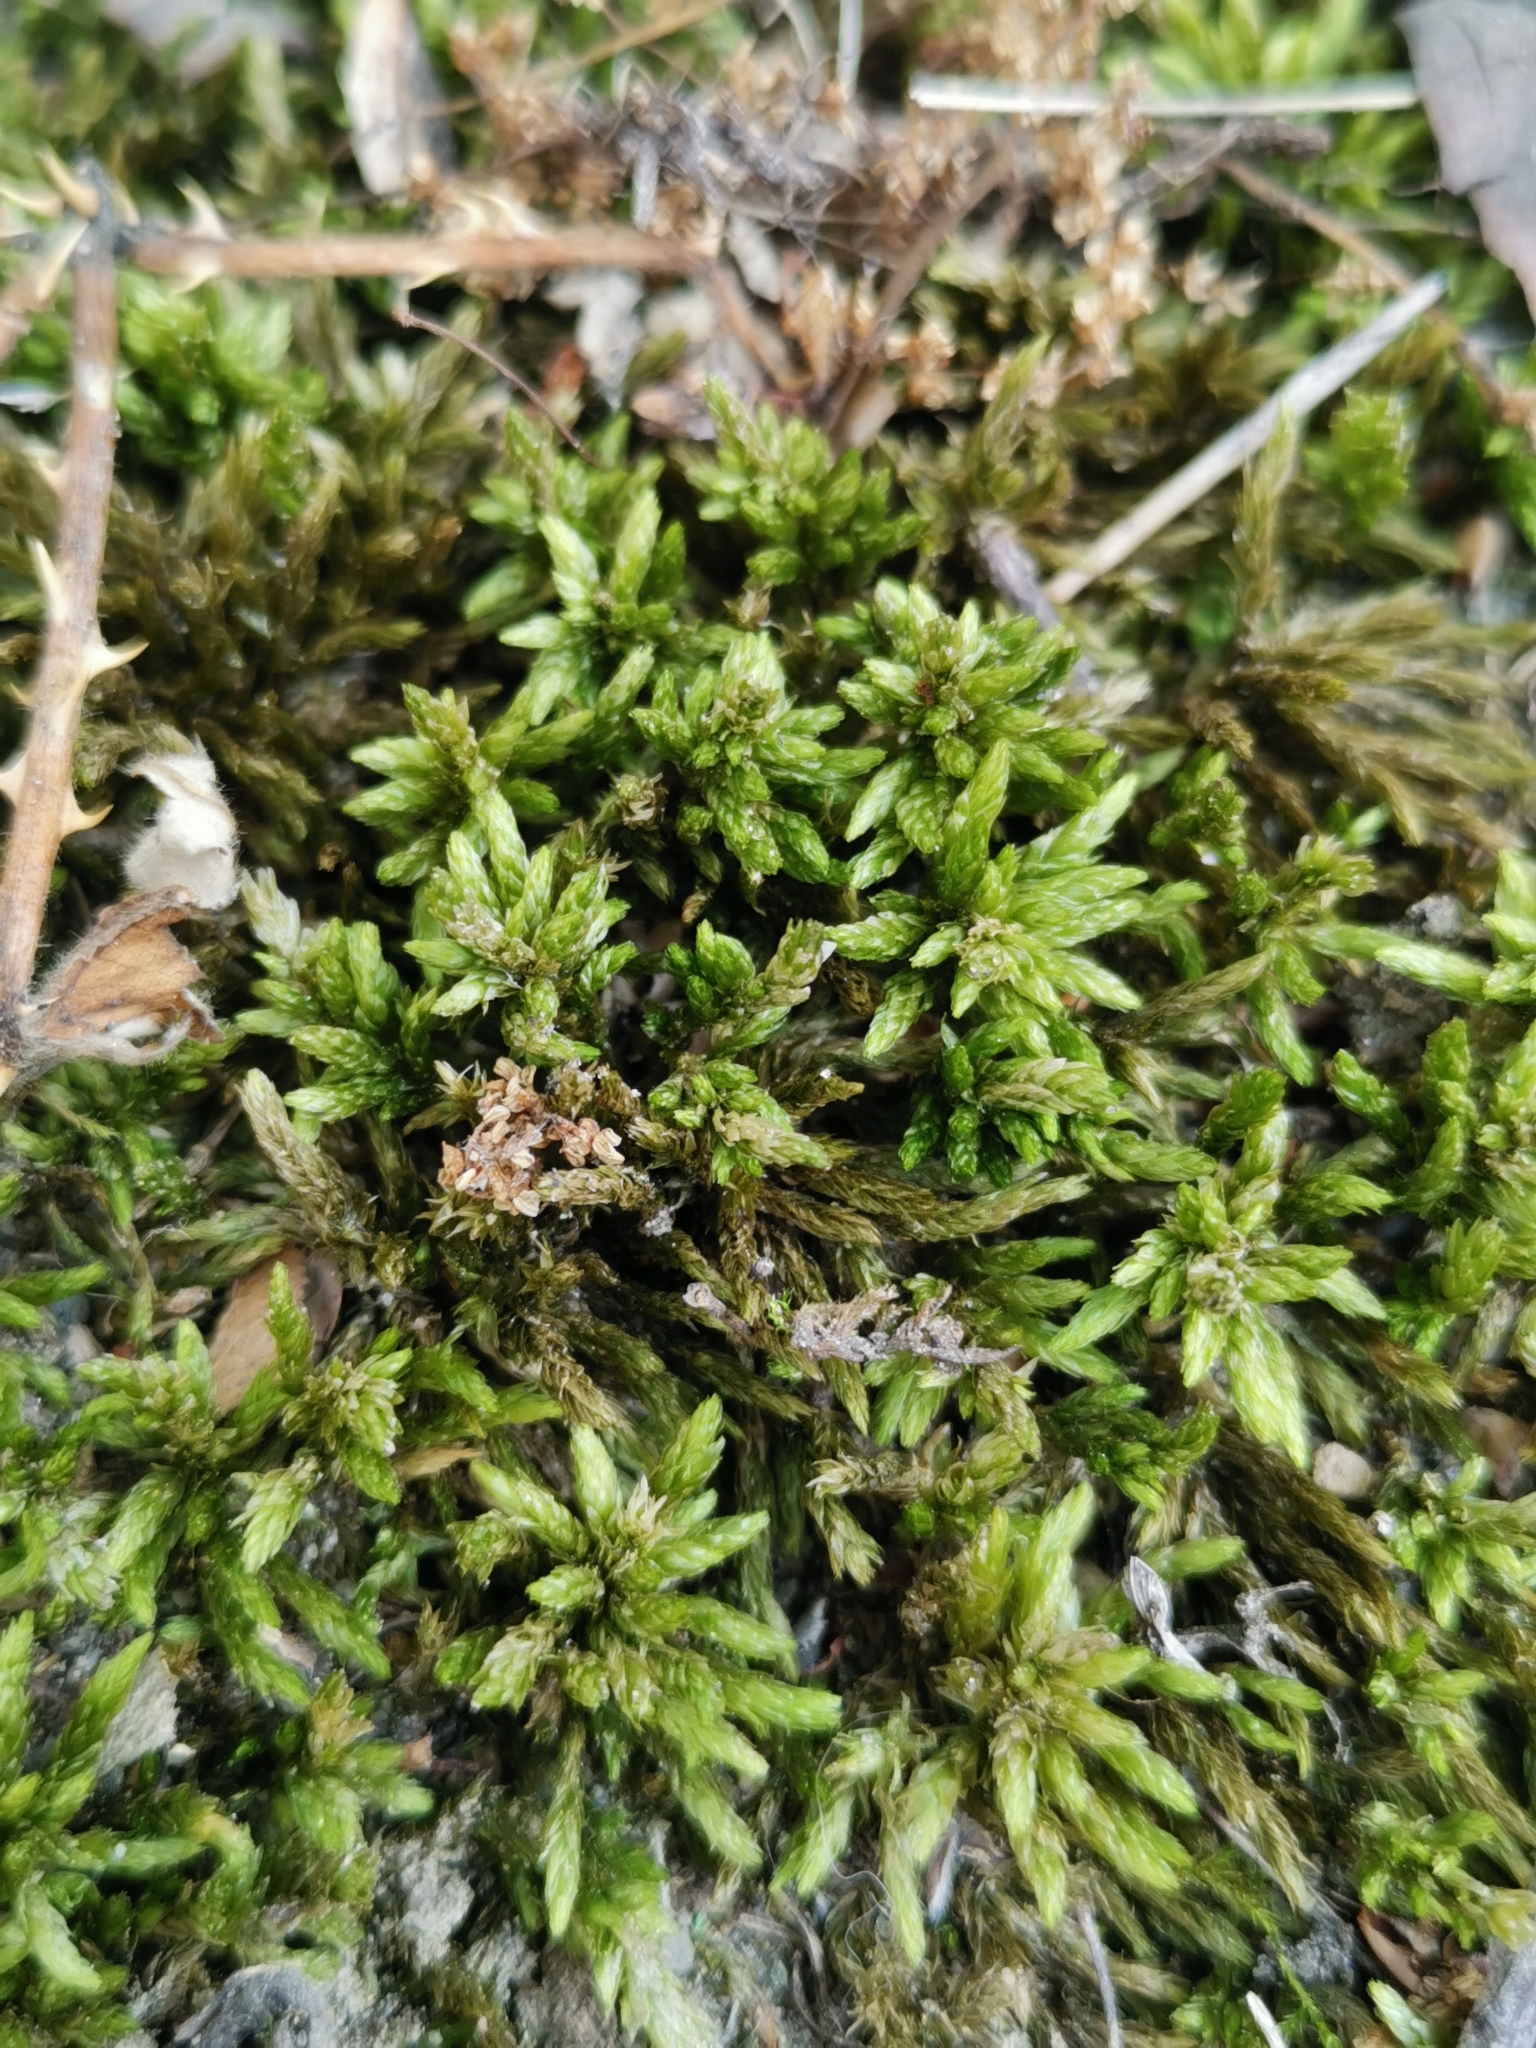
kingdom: Plantae
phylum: Bryophyta
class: Bryopsida
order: Hypnales
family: Climaciaceae
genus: Climacium
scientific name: Climacium dendroides
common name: Northern tree moss
